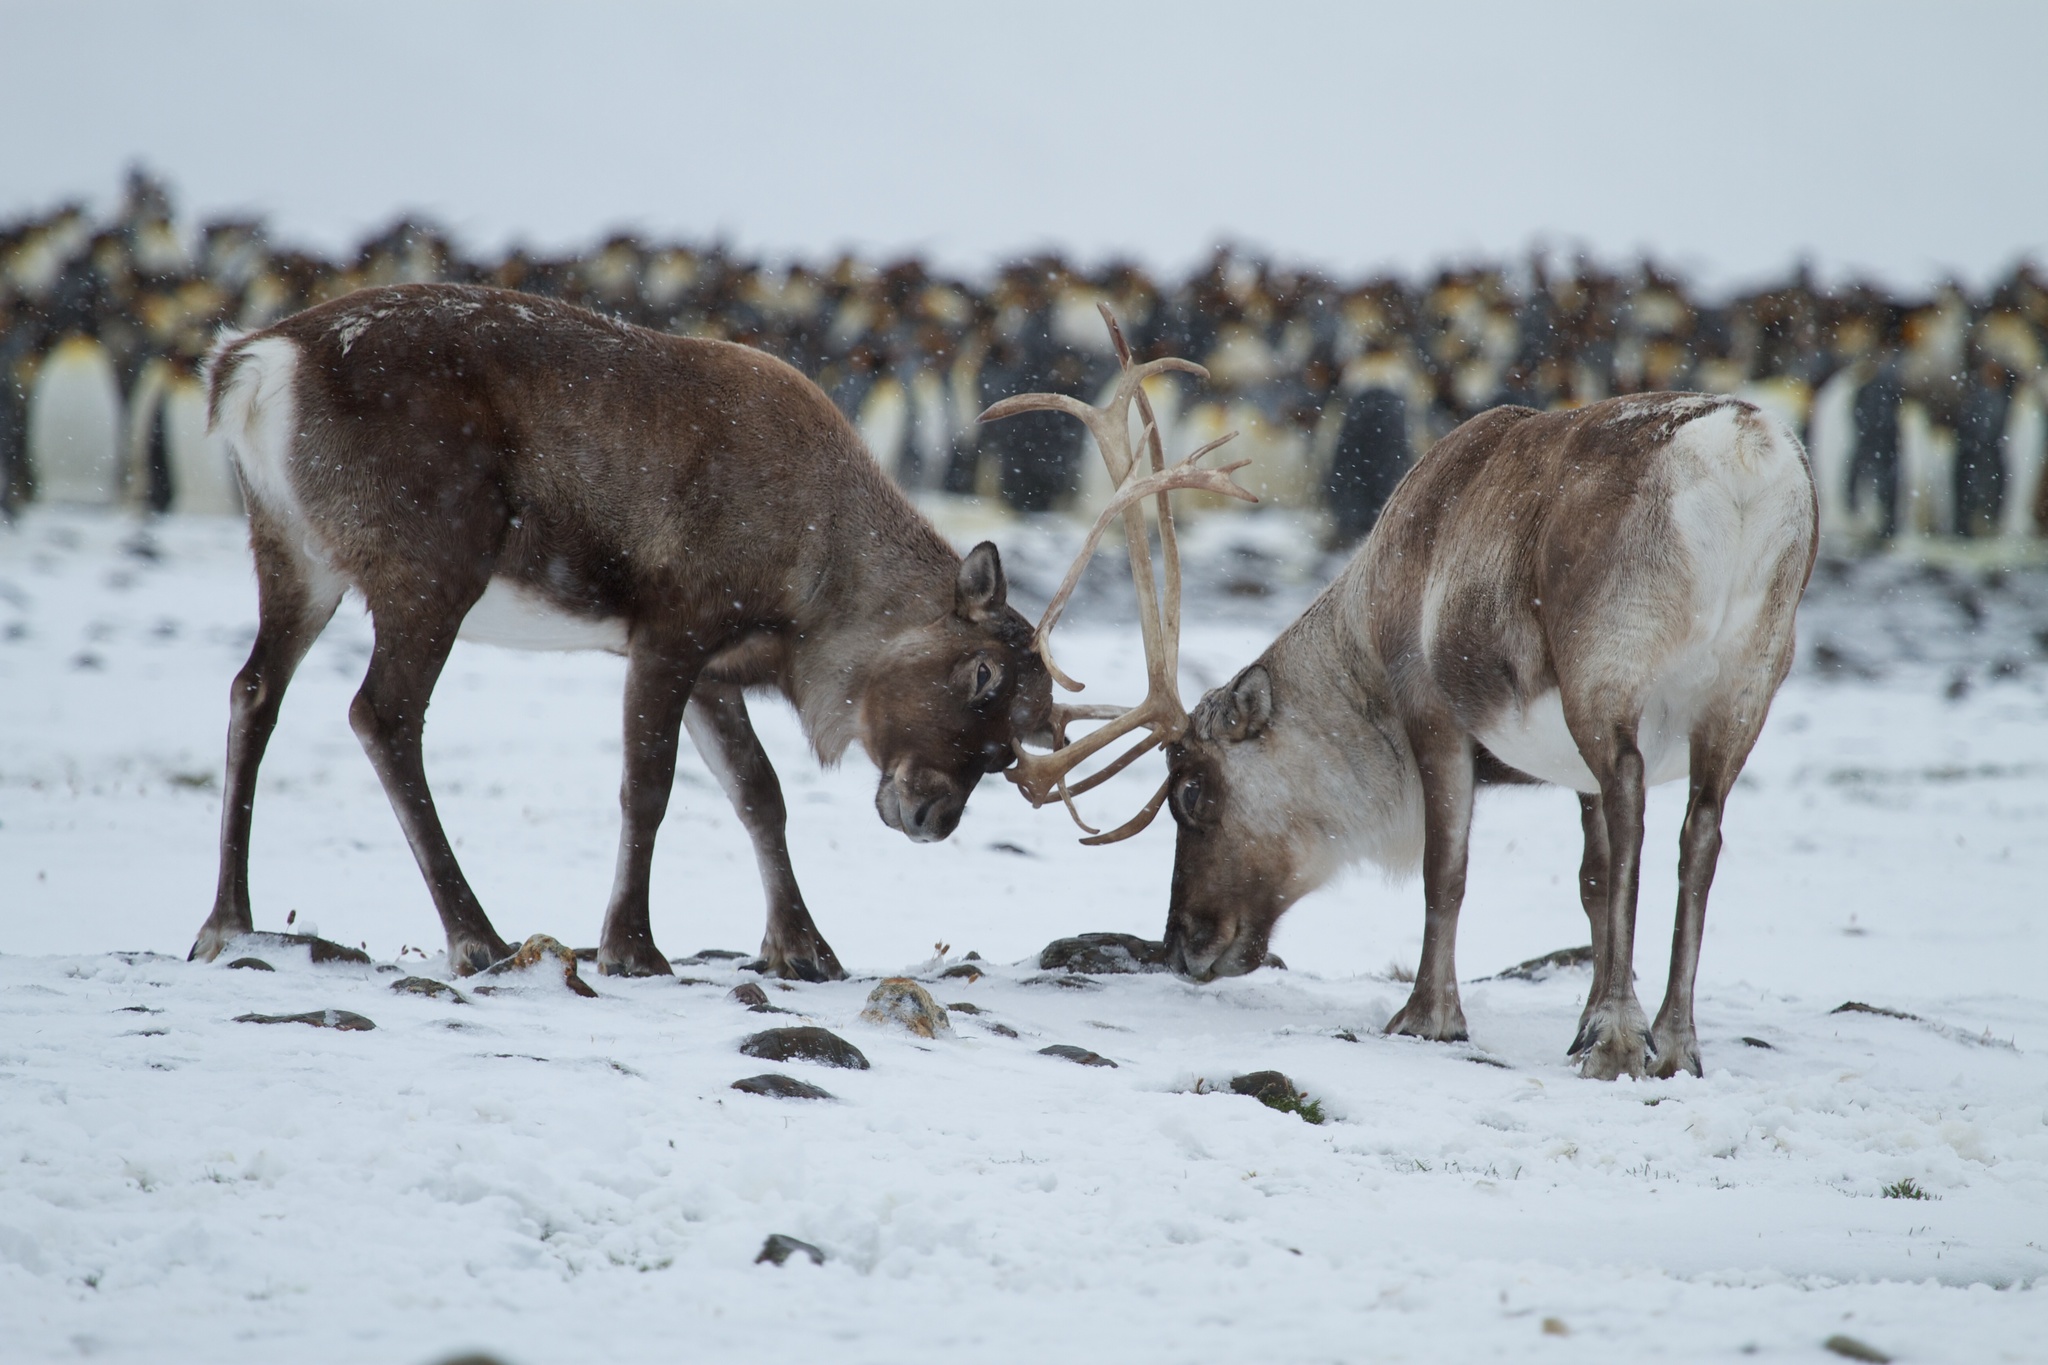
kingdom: Animalia
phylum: Chordata
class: Mammalia
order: Artiodactyla
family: Cervidae
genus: Rangifer
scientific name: Rangifer tarandus
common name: Reindeer
